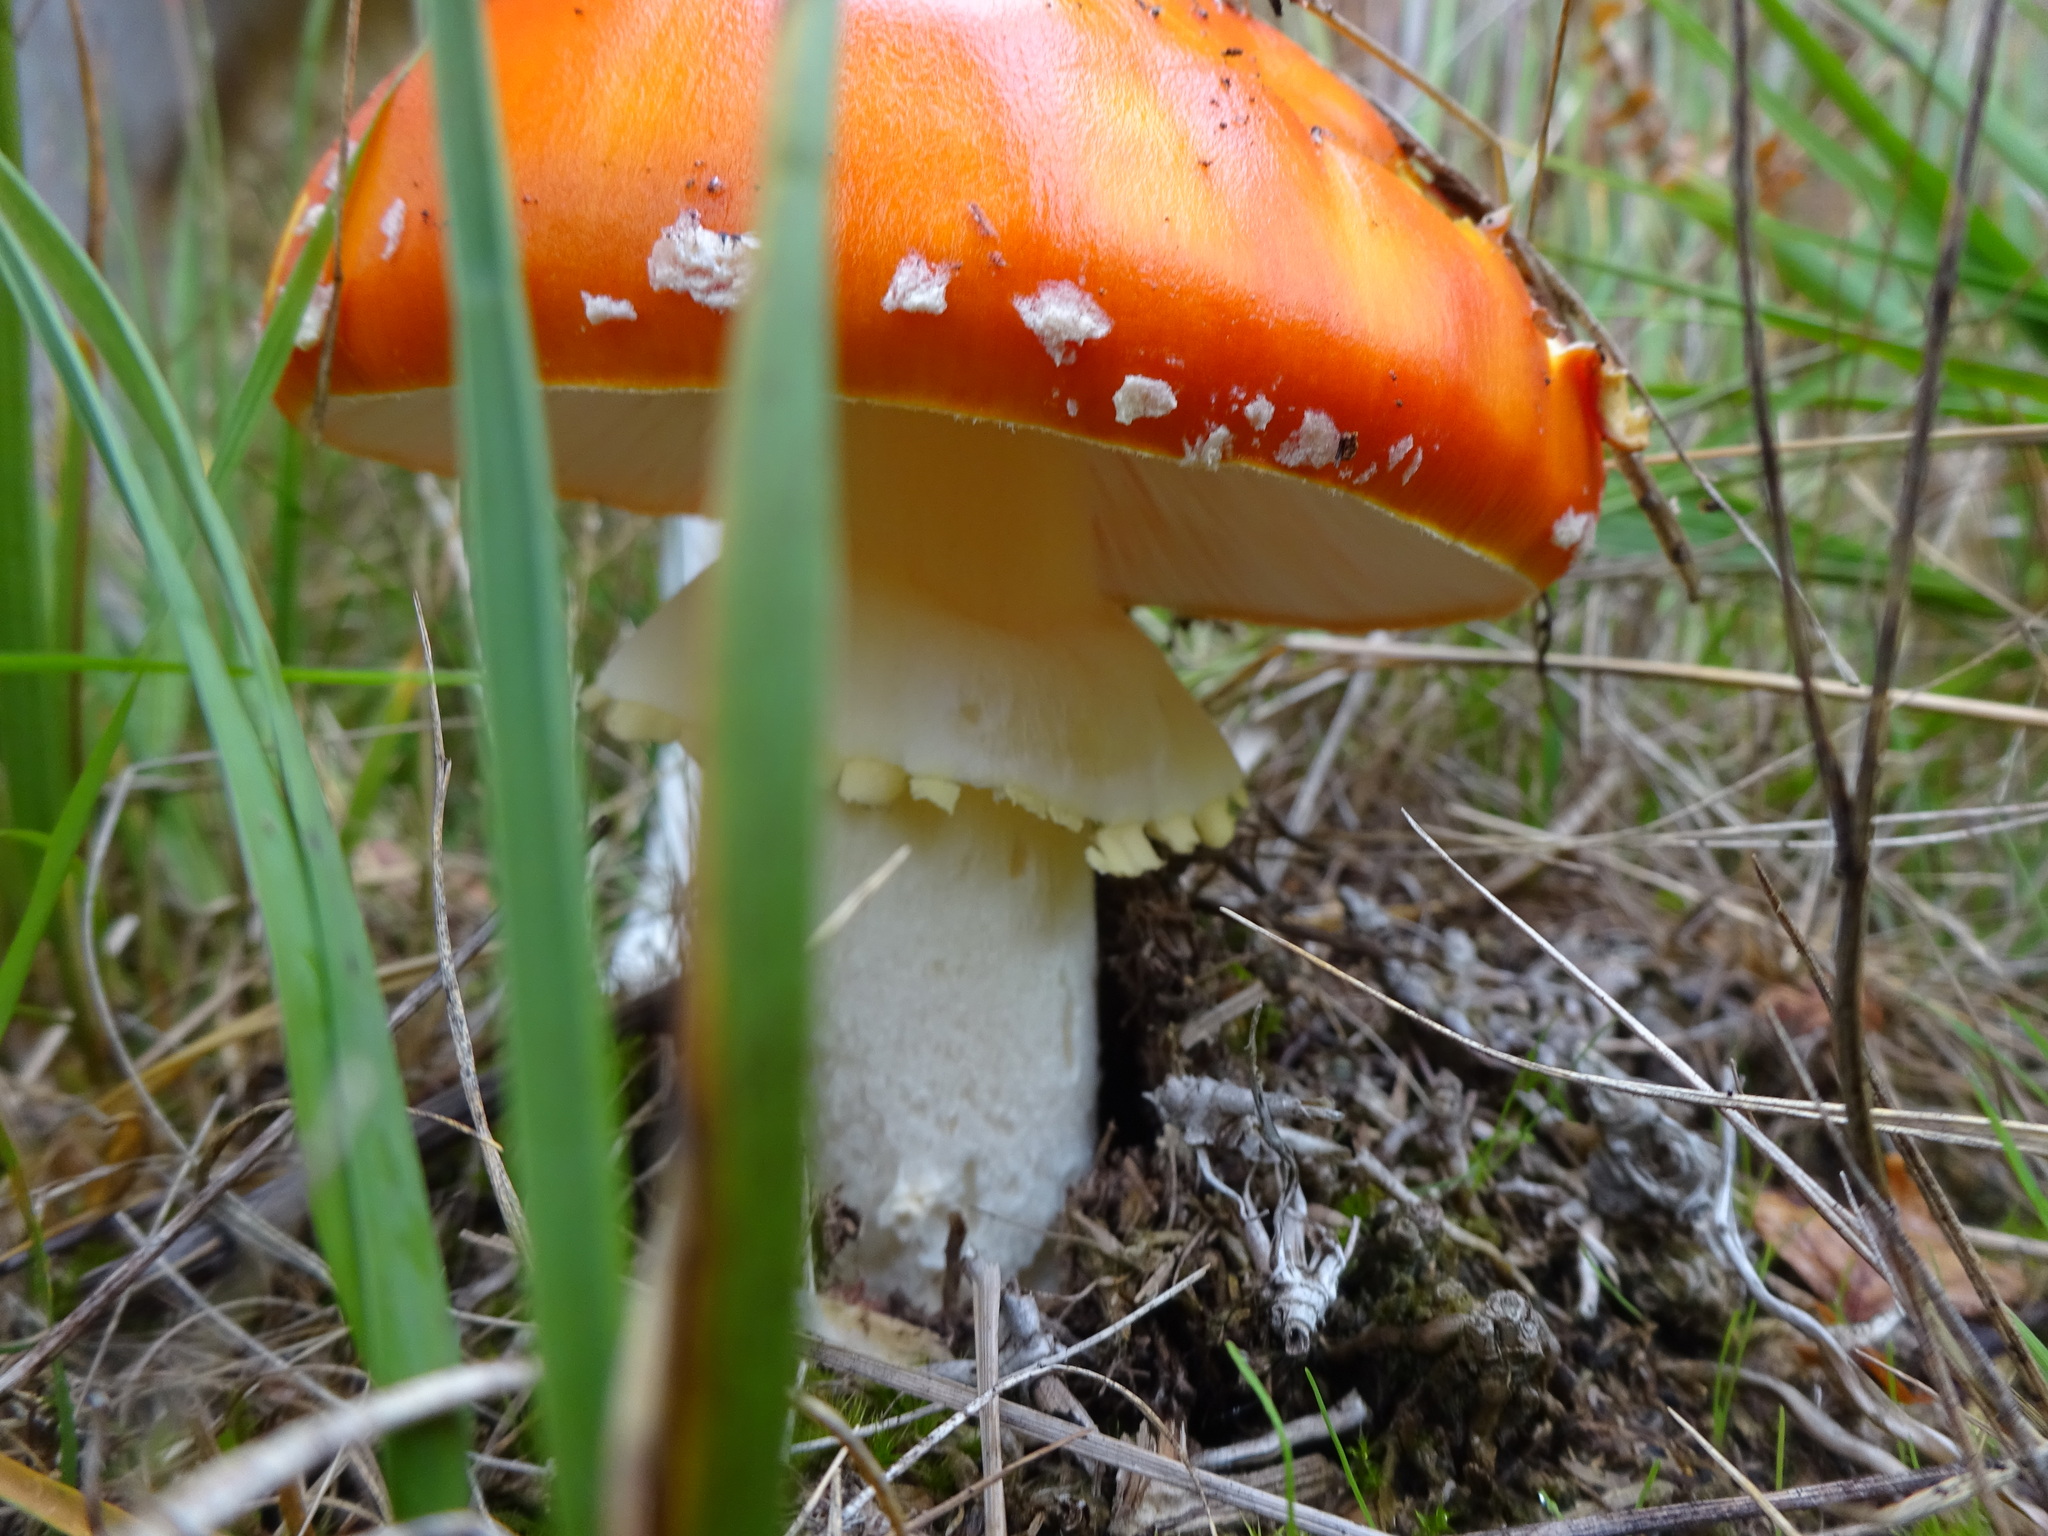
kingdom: Fungi
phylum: Basidiomycota
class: Agaricomycetes
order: Agaricales
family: Amanitaceae
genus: Amanita
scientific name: Amanita muscaria
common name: Fly agaric
